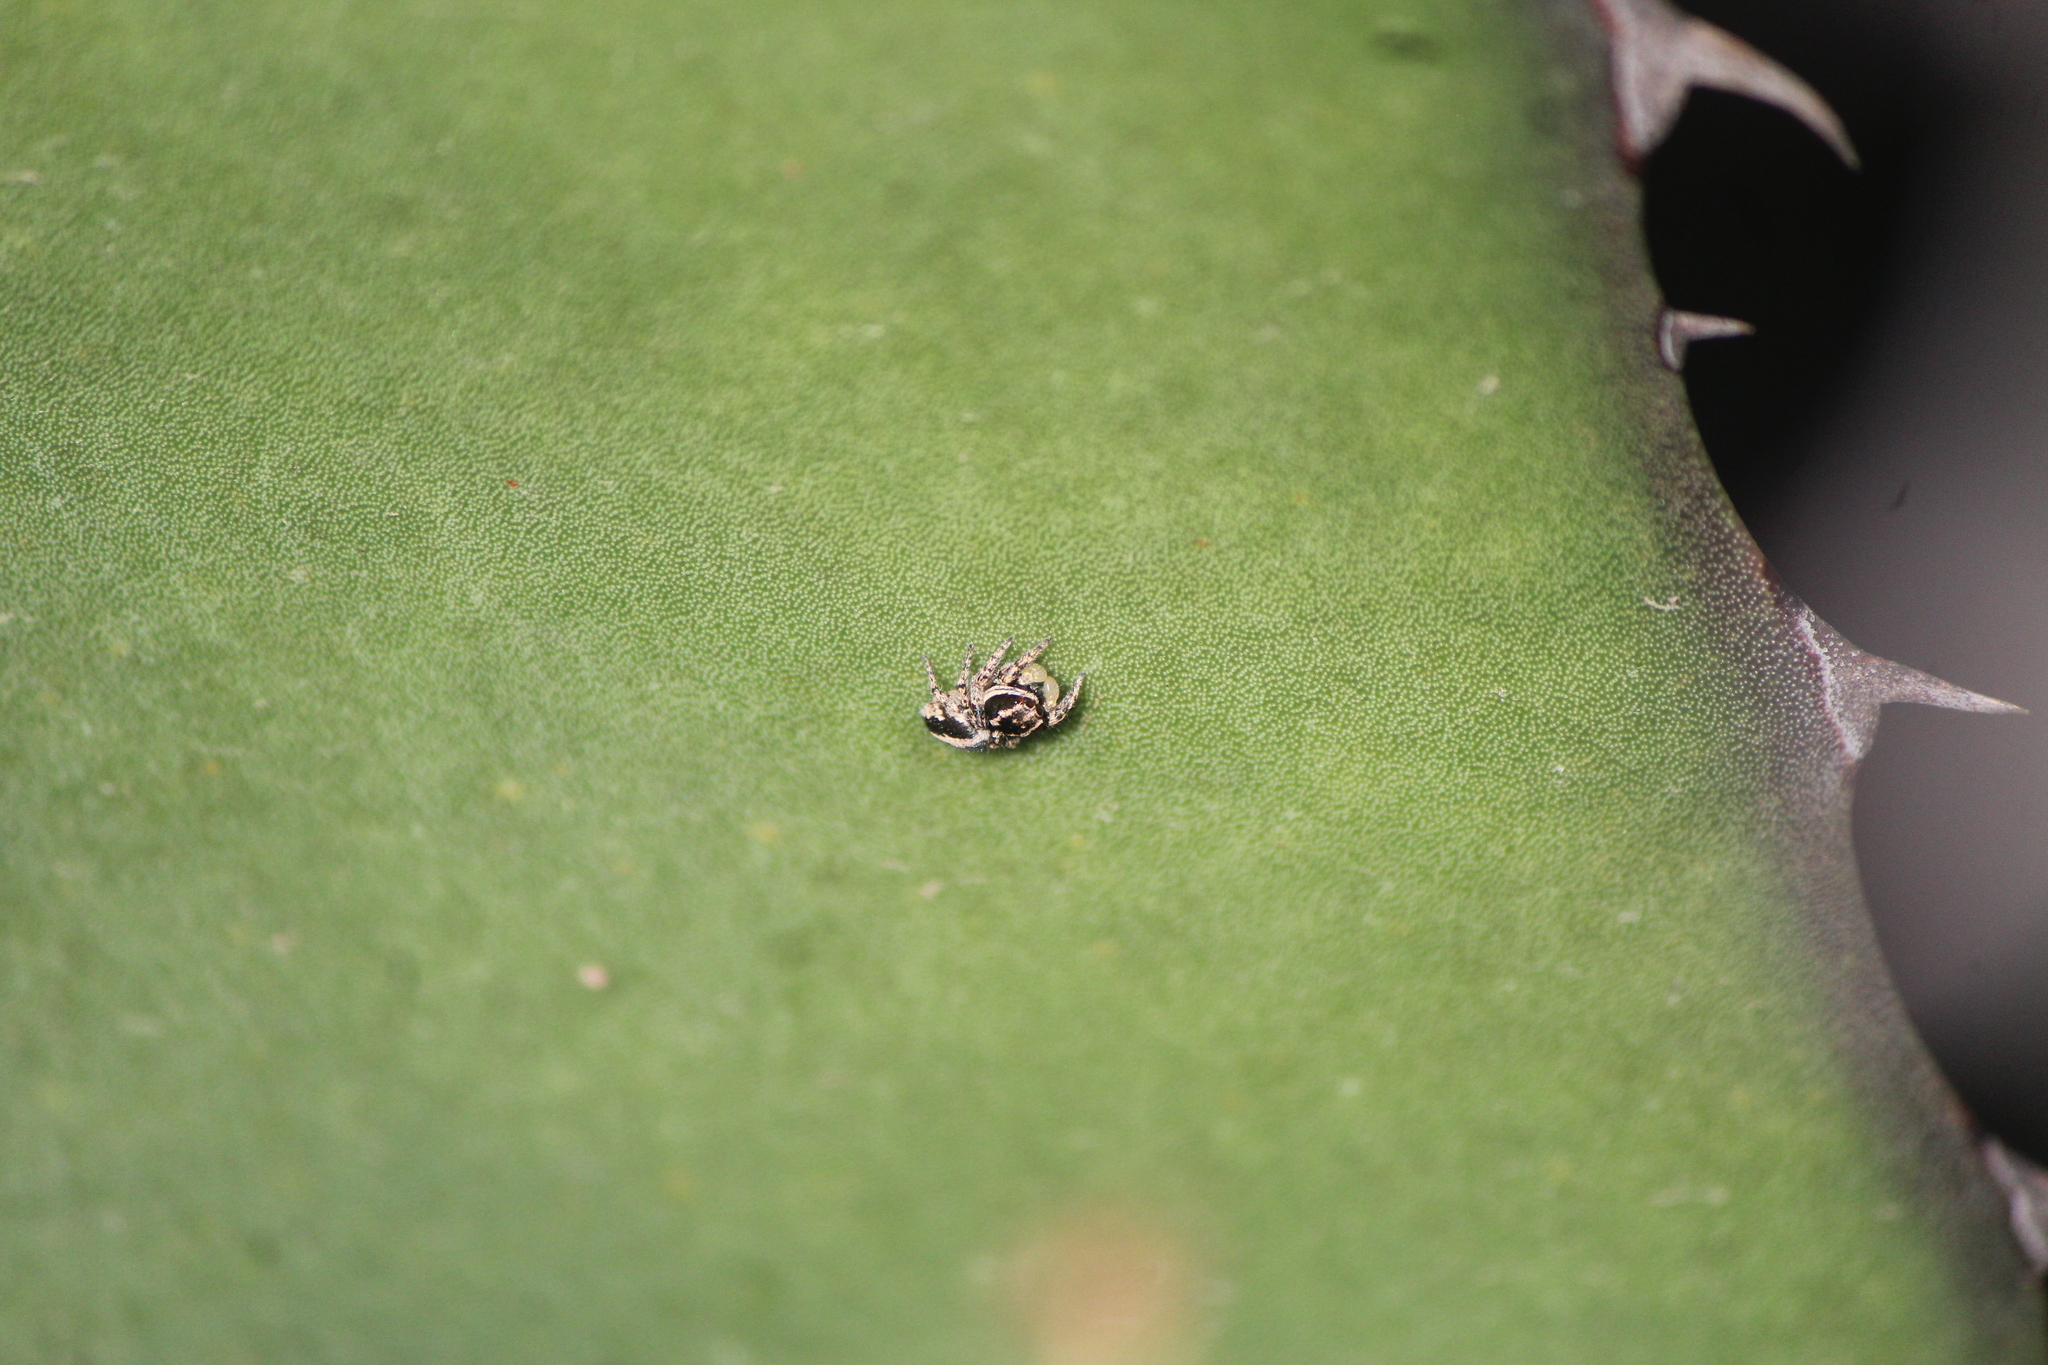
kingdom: Animalia
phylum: Arthropoda
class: Arachnida
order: Araneae
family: Salticidae
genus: Habronattus
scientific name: Habronattus cognatus
